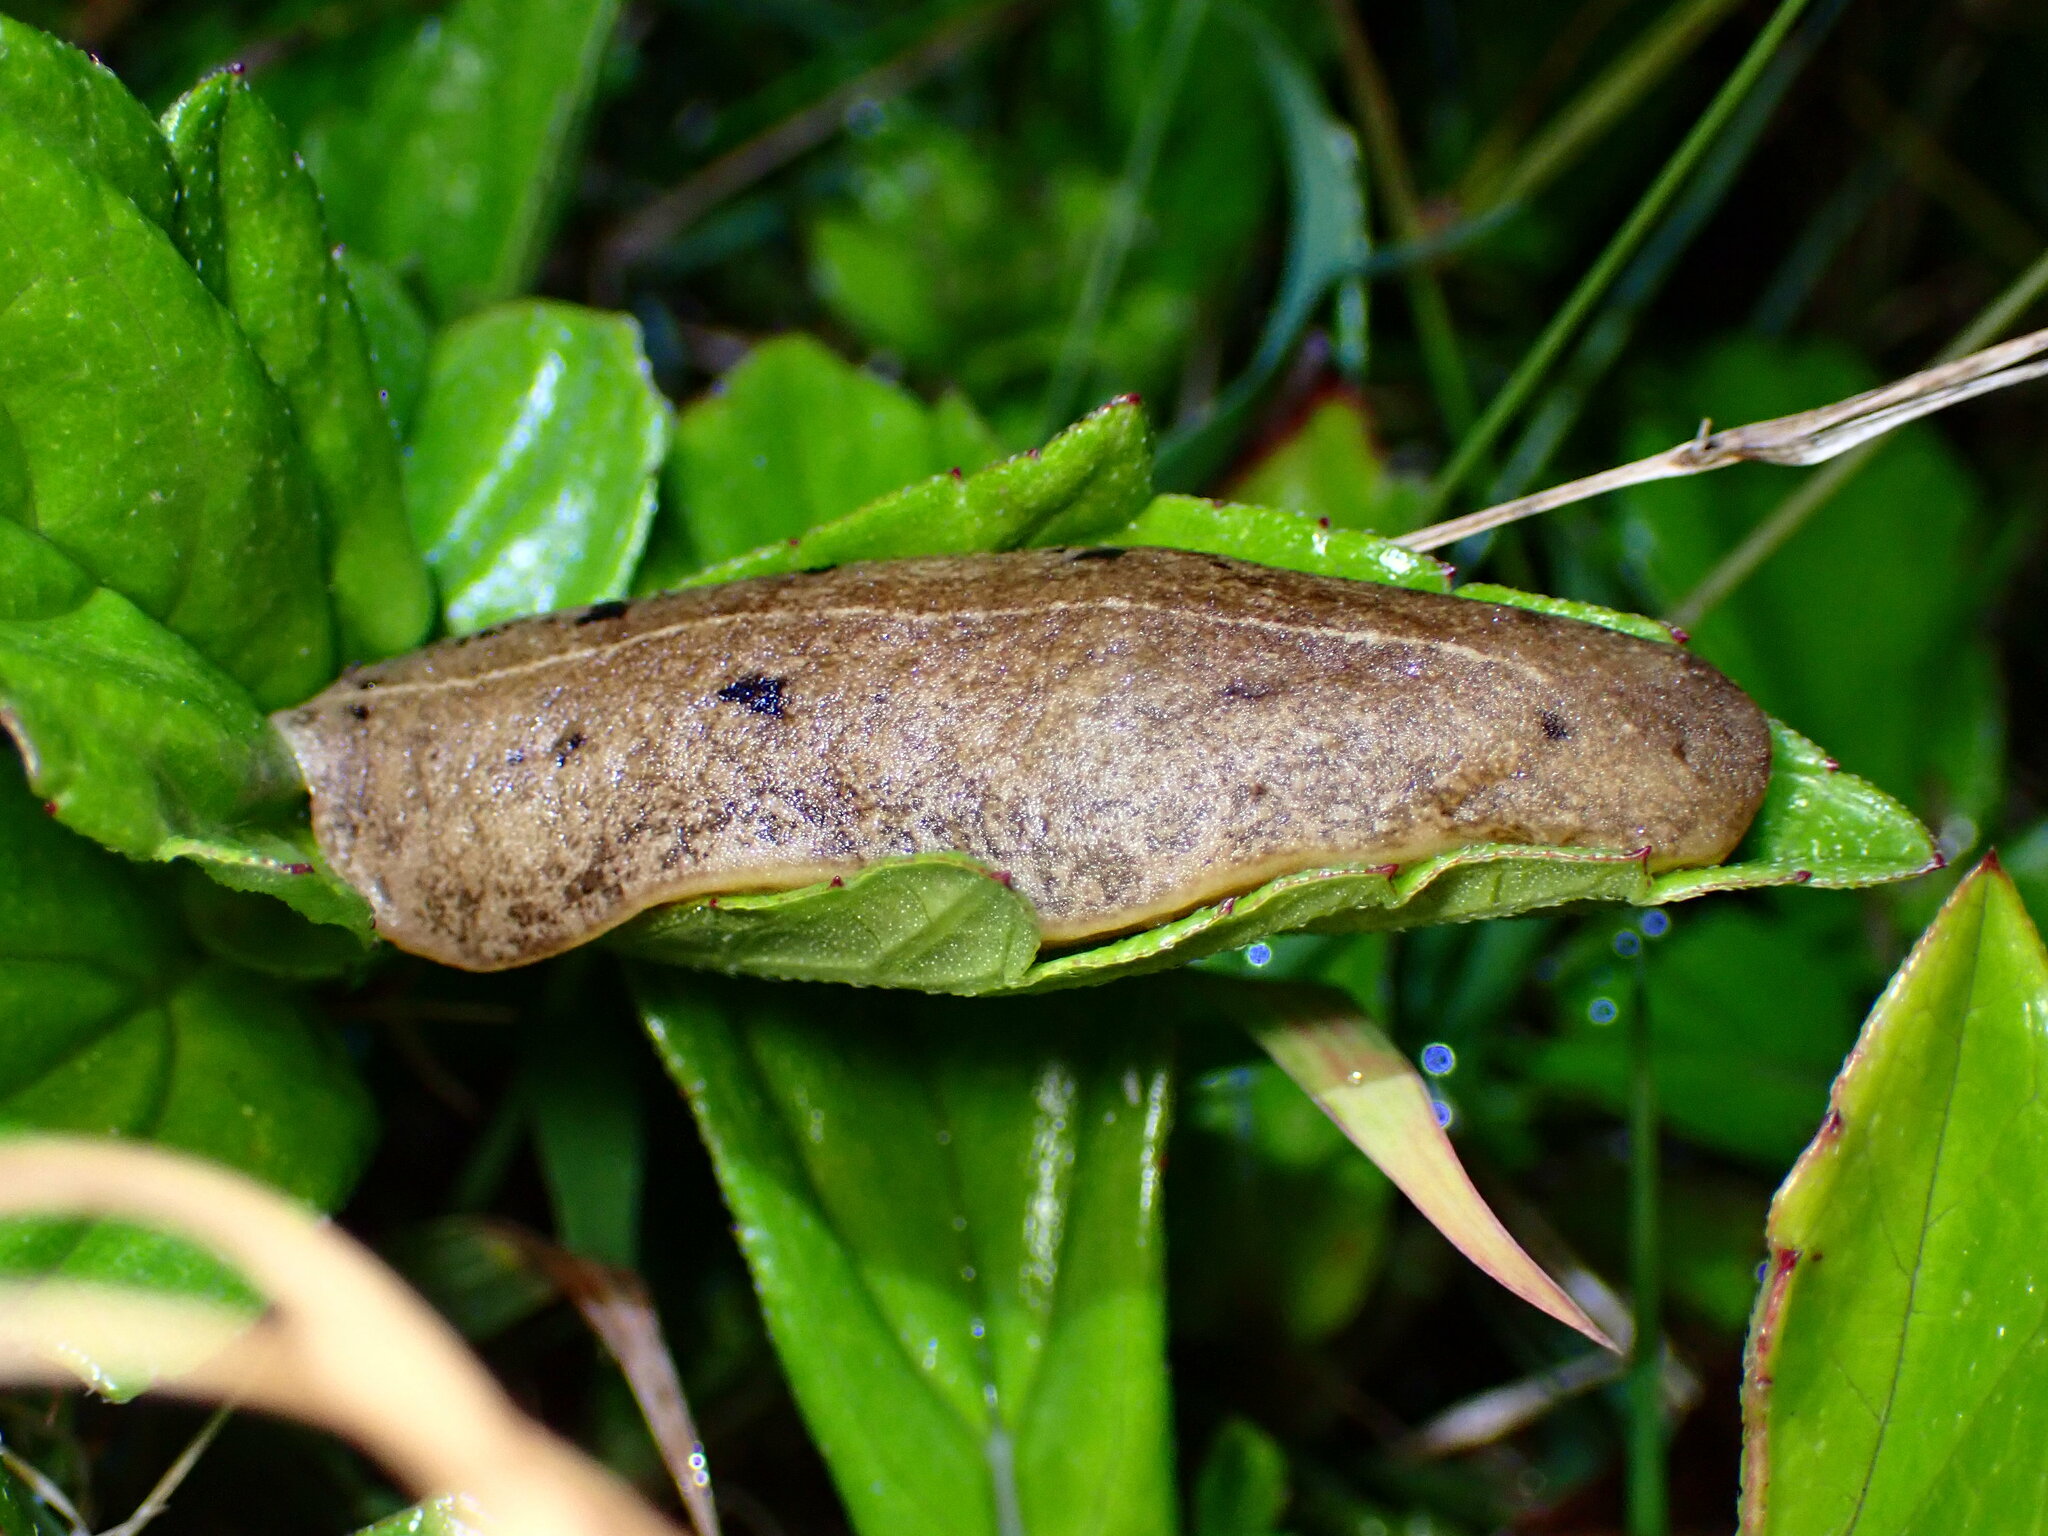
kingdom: Animalia
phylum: Mollusca
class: Gastropoda
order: Systellommatophora
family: Veronicellidae
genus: Veronicella
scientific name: Veronicella cubensis
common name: Two striped slug
